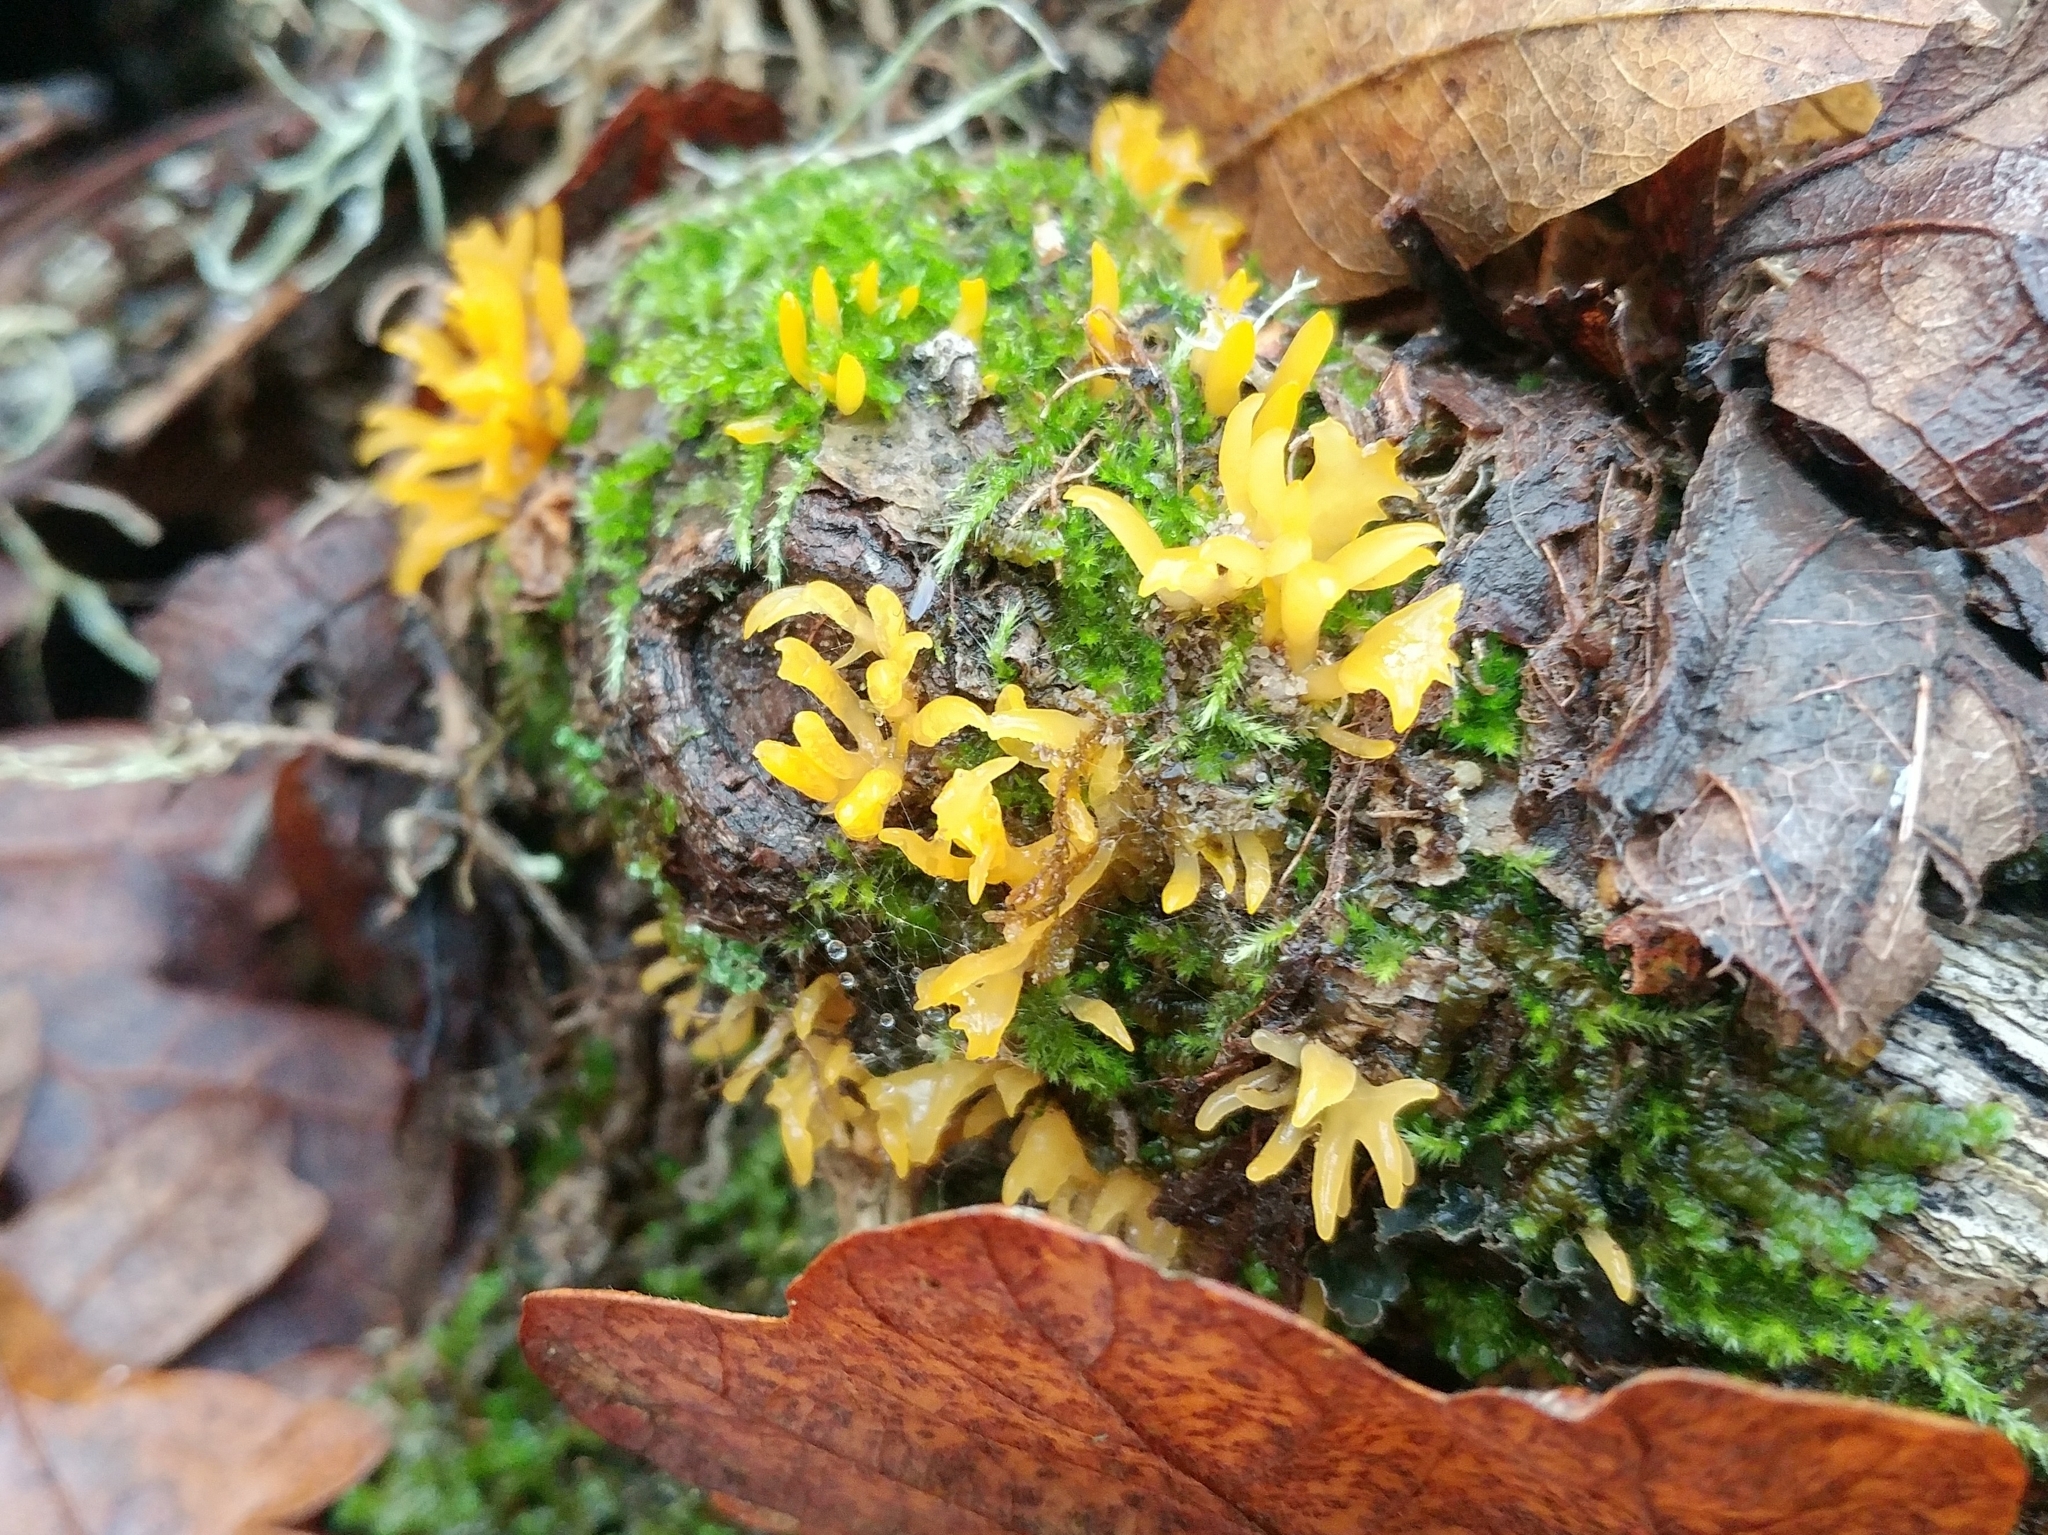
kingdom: Fungi
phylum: Basidiomycota
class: Dacrymycetes
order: Dacrymycetales
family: Dacrymycetaceae
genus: Calocera
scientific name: Calocera cornea
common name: Small stagshorn
